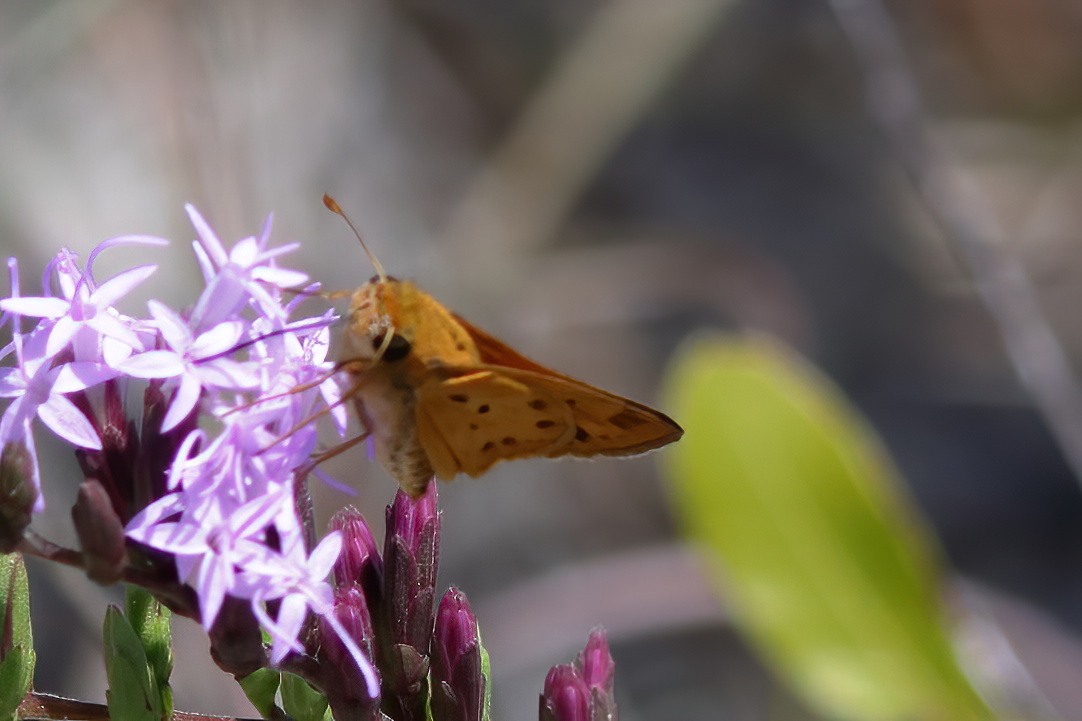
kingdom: Animalia
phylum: Arthropoda
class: Insecta
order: Lepidoptera
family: Hesperiidae
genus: Hylephila
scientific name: Hylephila phyleus
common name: Fiery skipper
